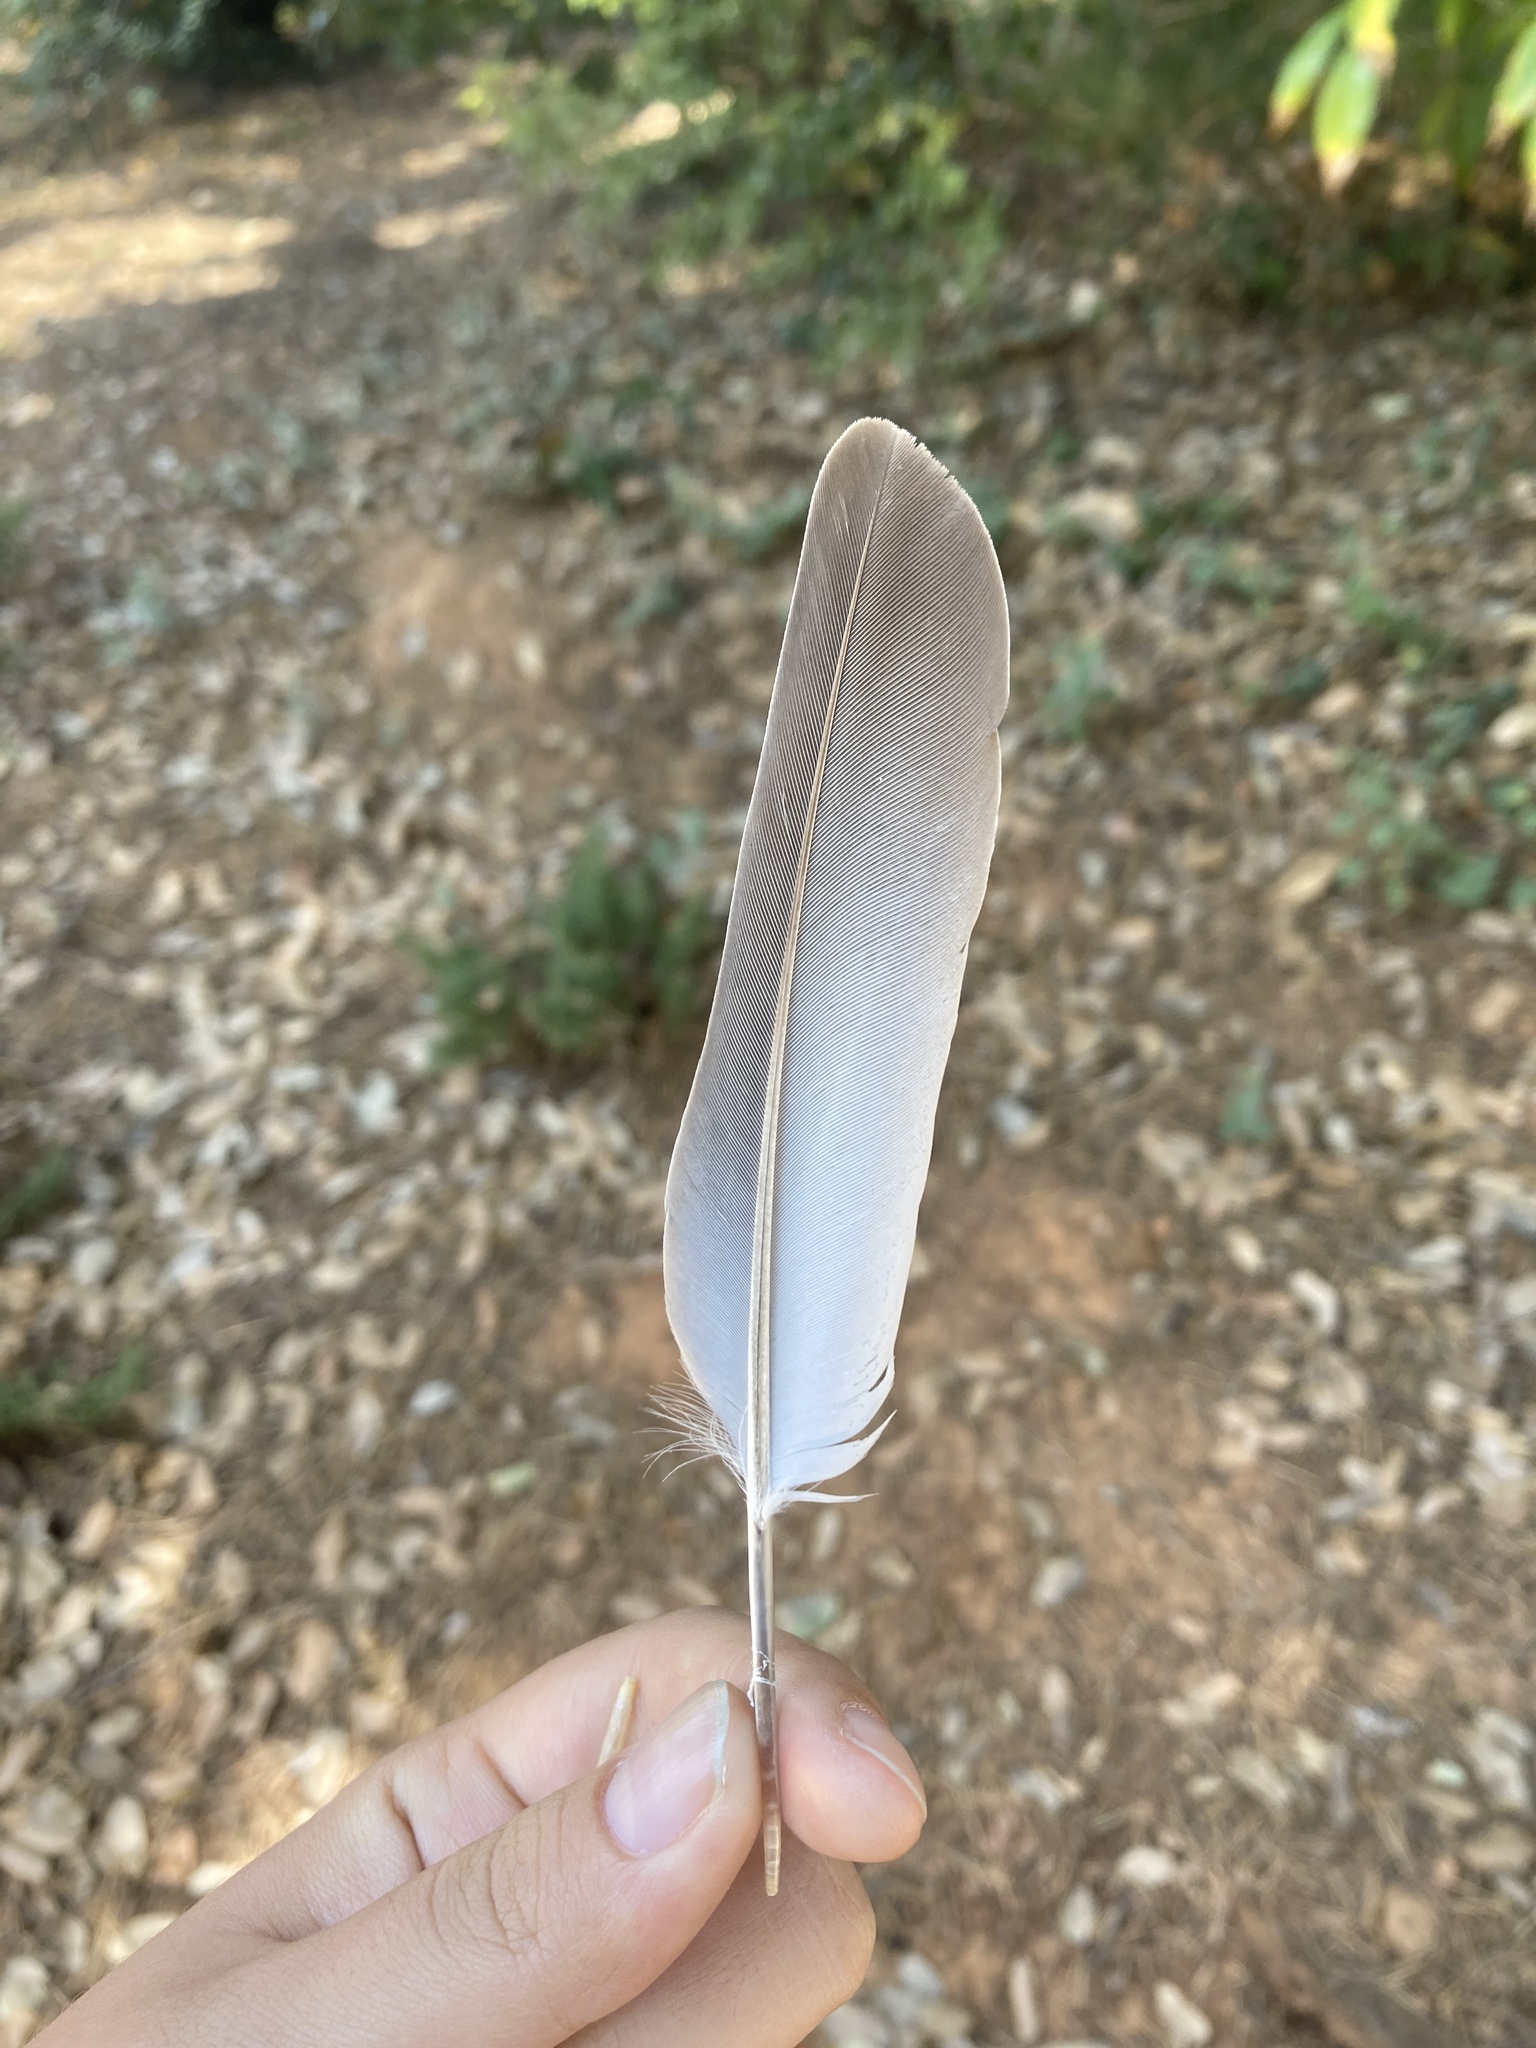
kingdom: Animalia
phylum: Chordata
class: Aves
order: Columbiformes
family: Columbidae
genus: Streptopelia
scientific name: Streptopelia decaocto
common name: Eurasian collared dove
